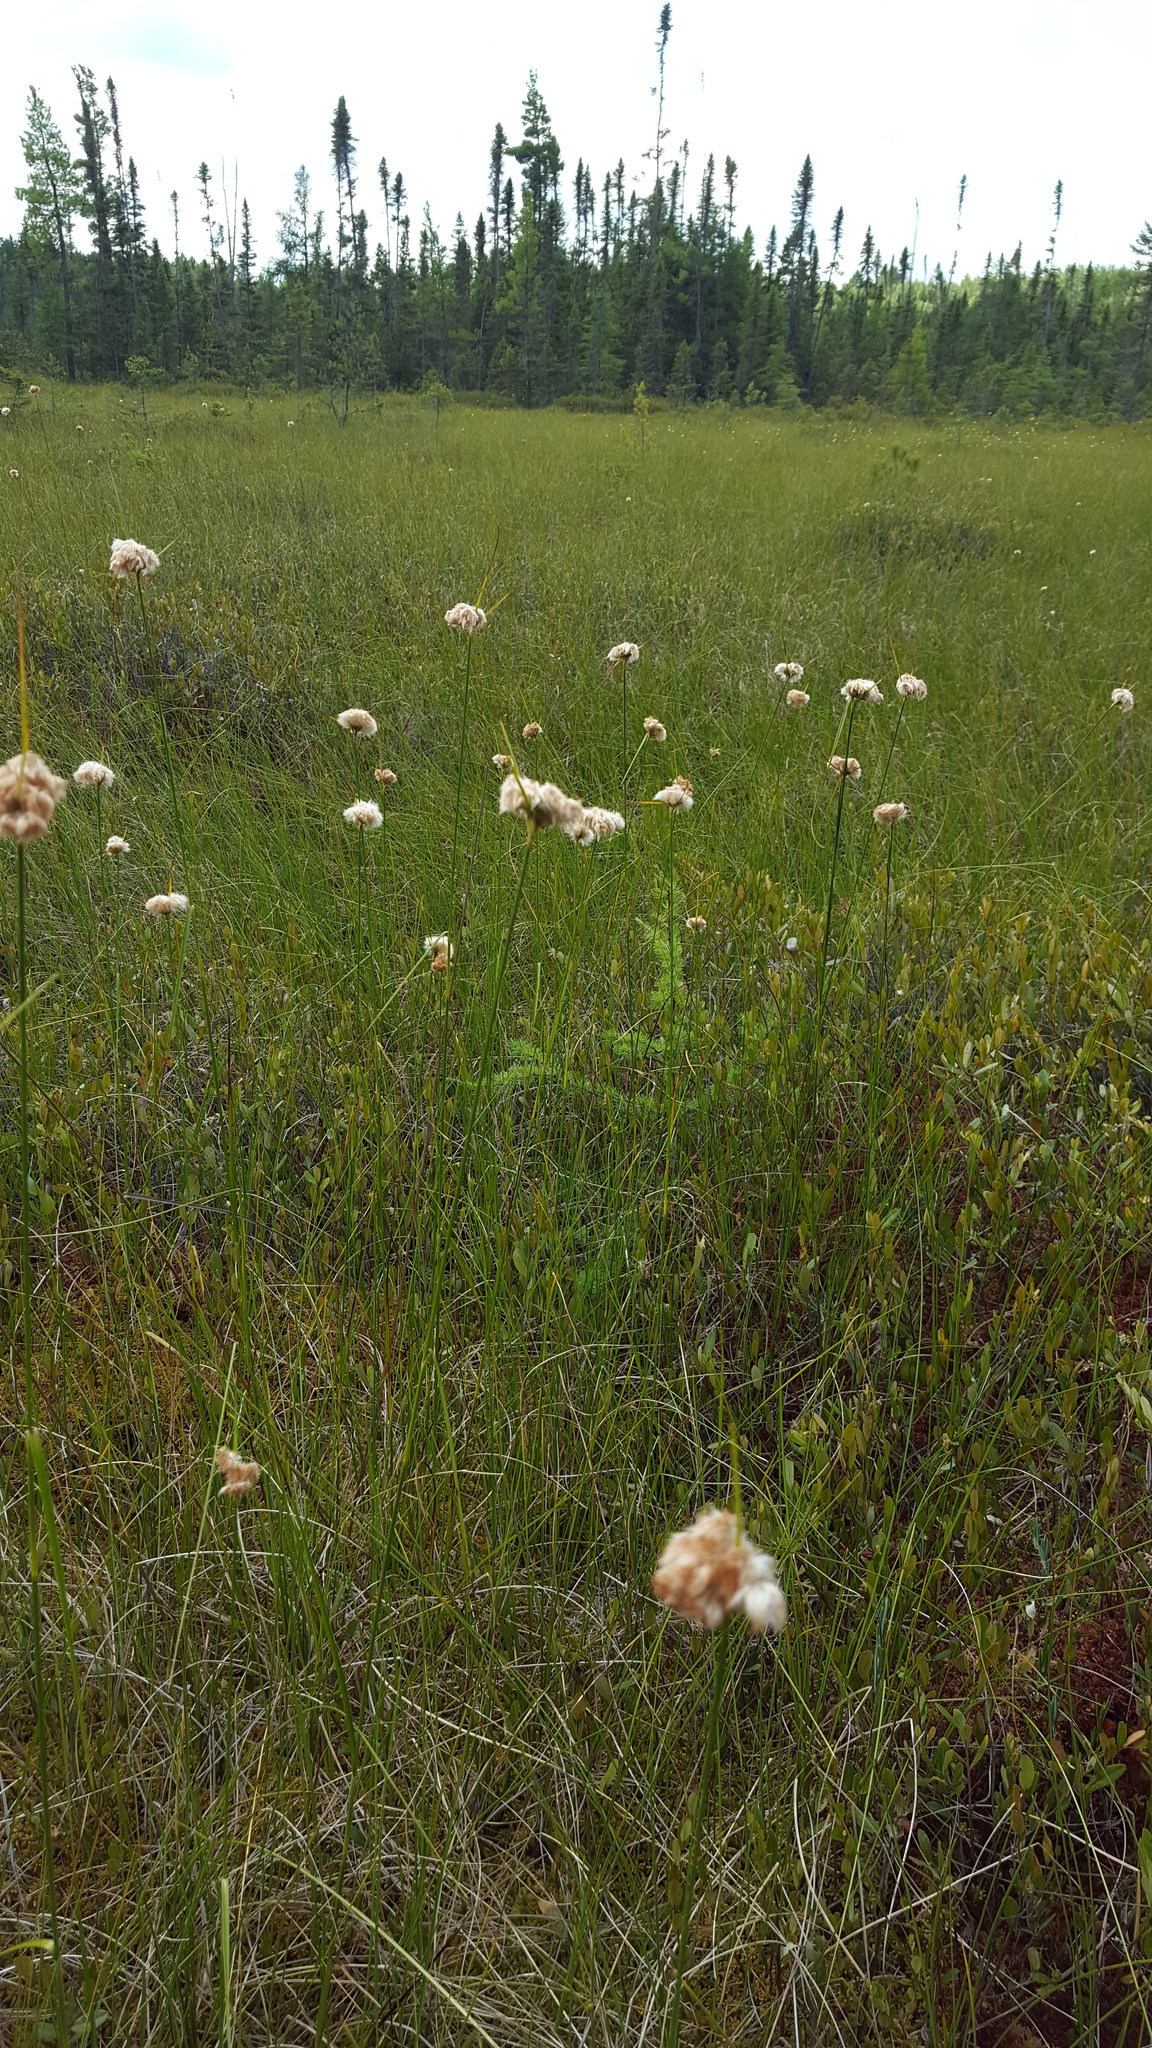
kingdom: Plantae
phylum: Tracheophyta
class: Liliopsida
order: Poales
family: Cyperaceae
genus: Eriophorum
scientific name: Eriophorum virginicum
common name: Tawny cottongrass
